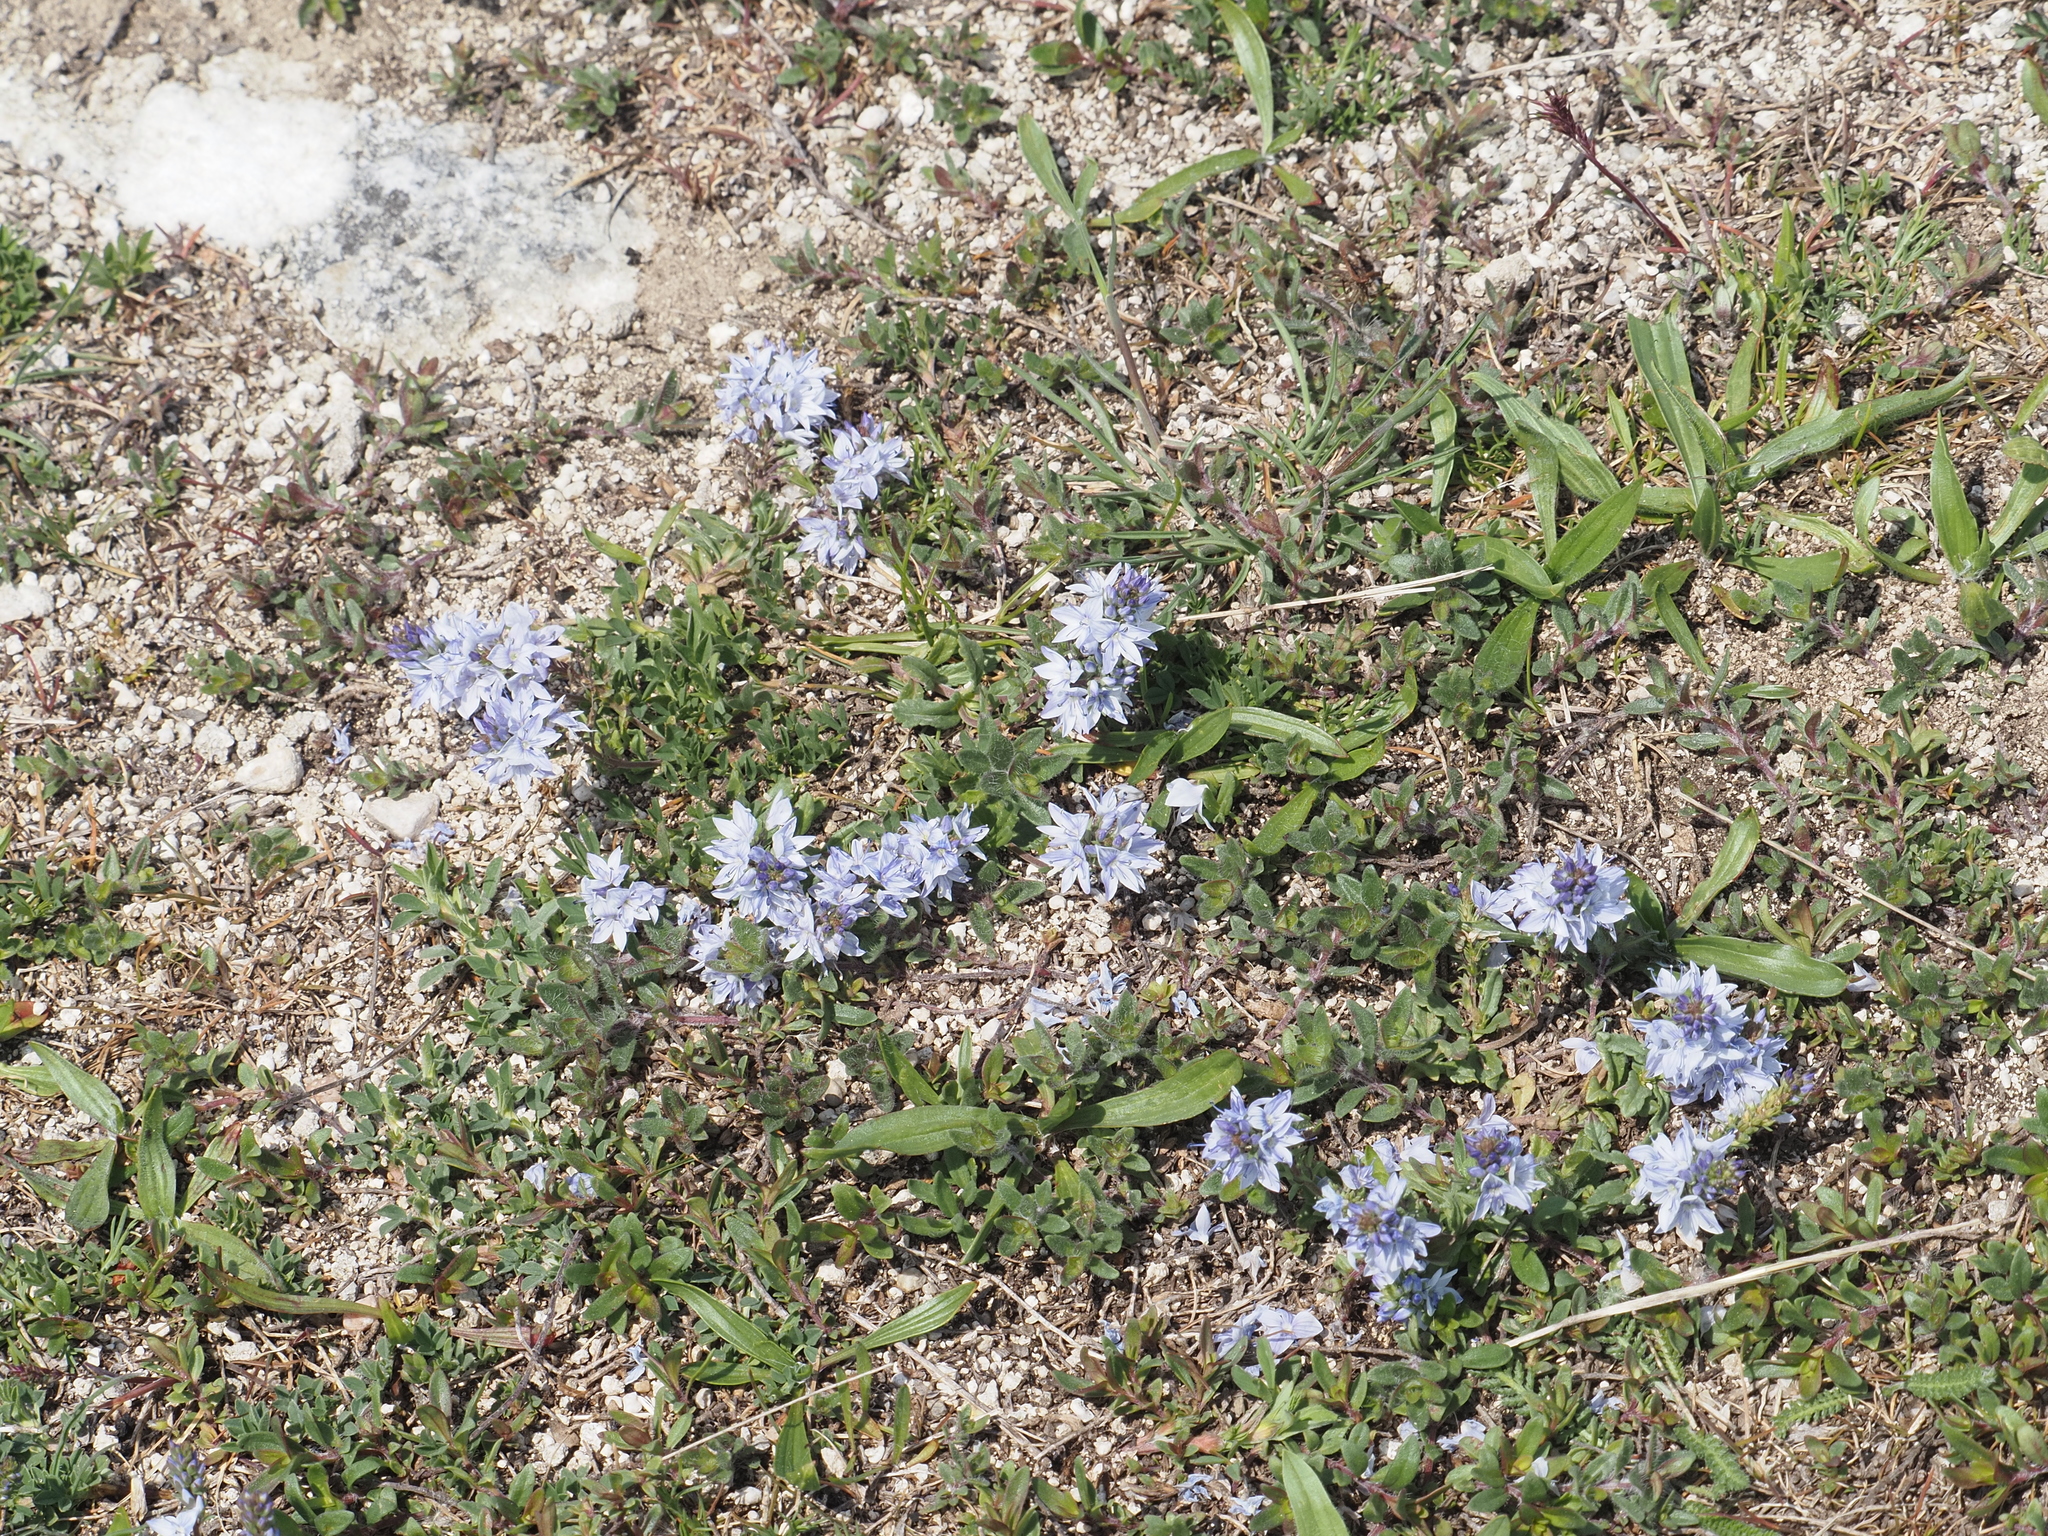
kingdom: Plantae
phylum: Tracheophyta
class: Magnoliopsida
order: Lamiales
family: Plantaginaceae
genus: Veronica
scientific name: Veronica prostrata
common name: Prostrate speedwell
